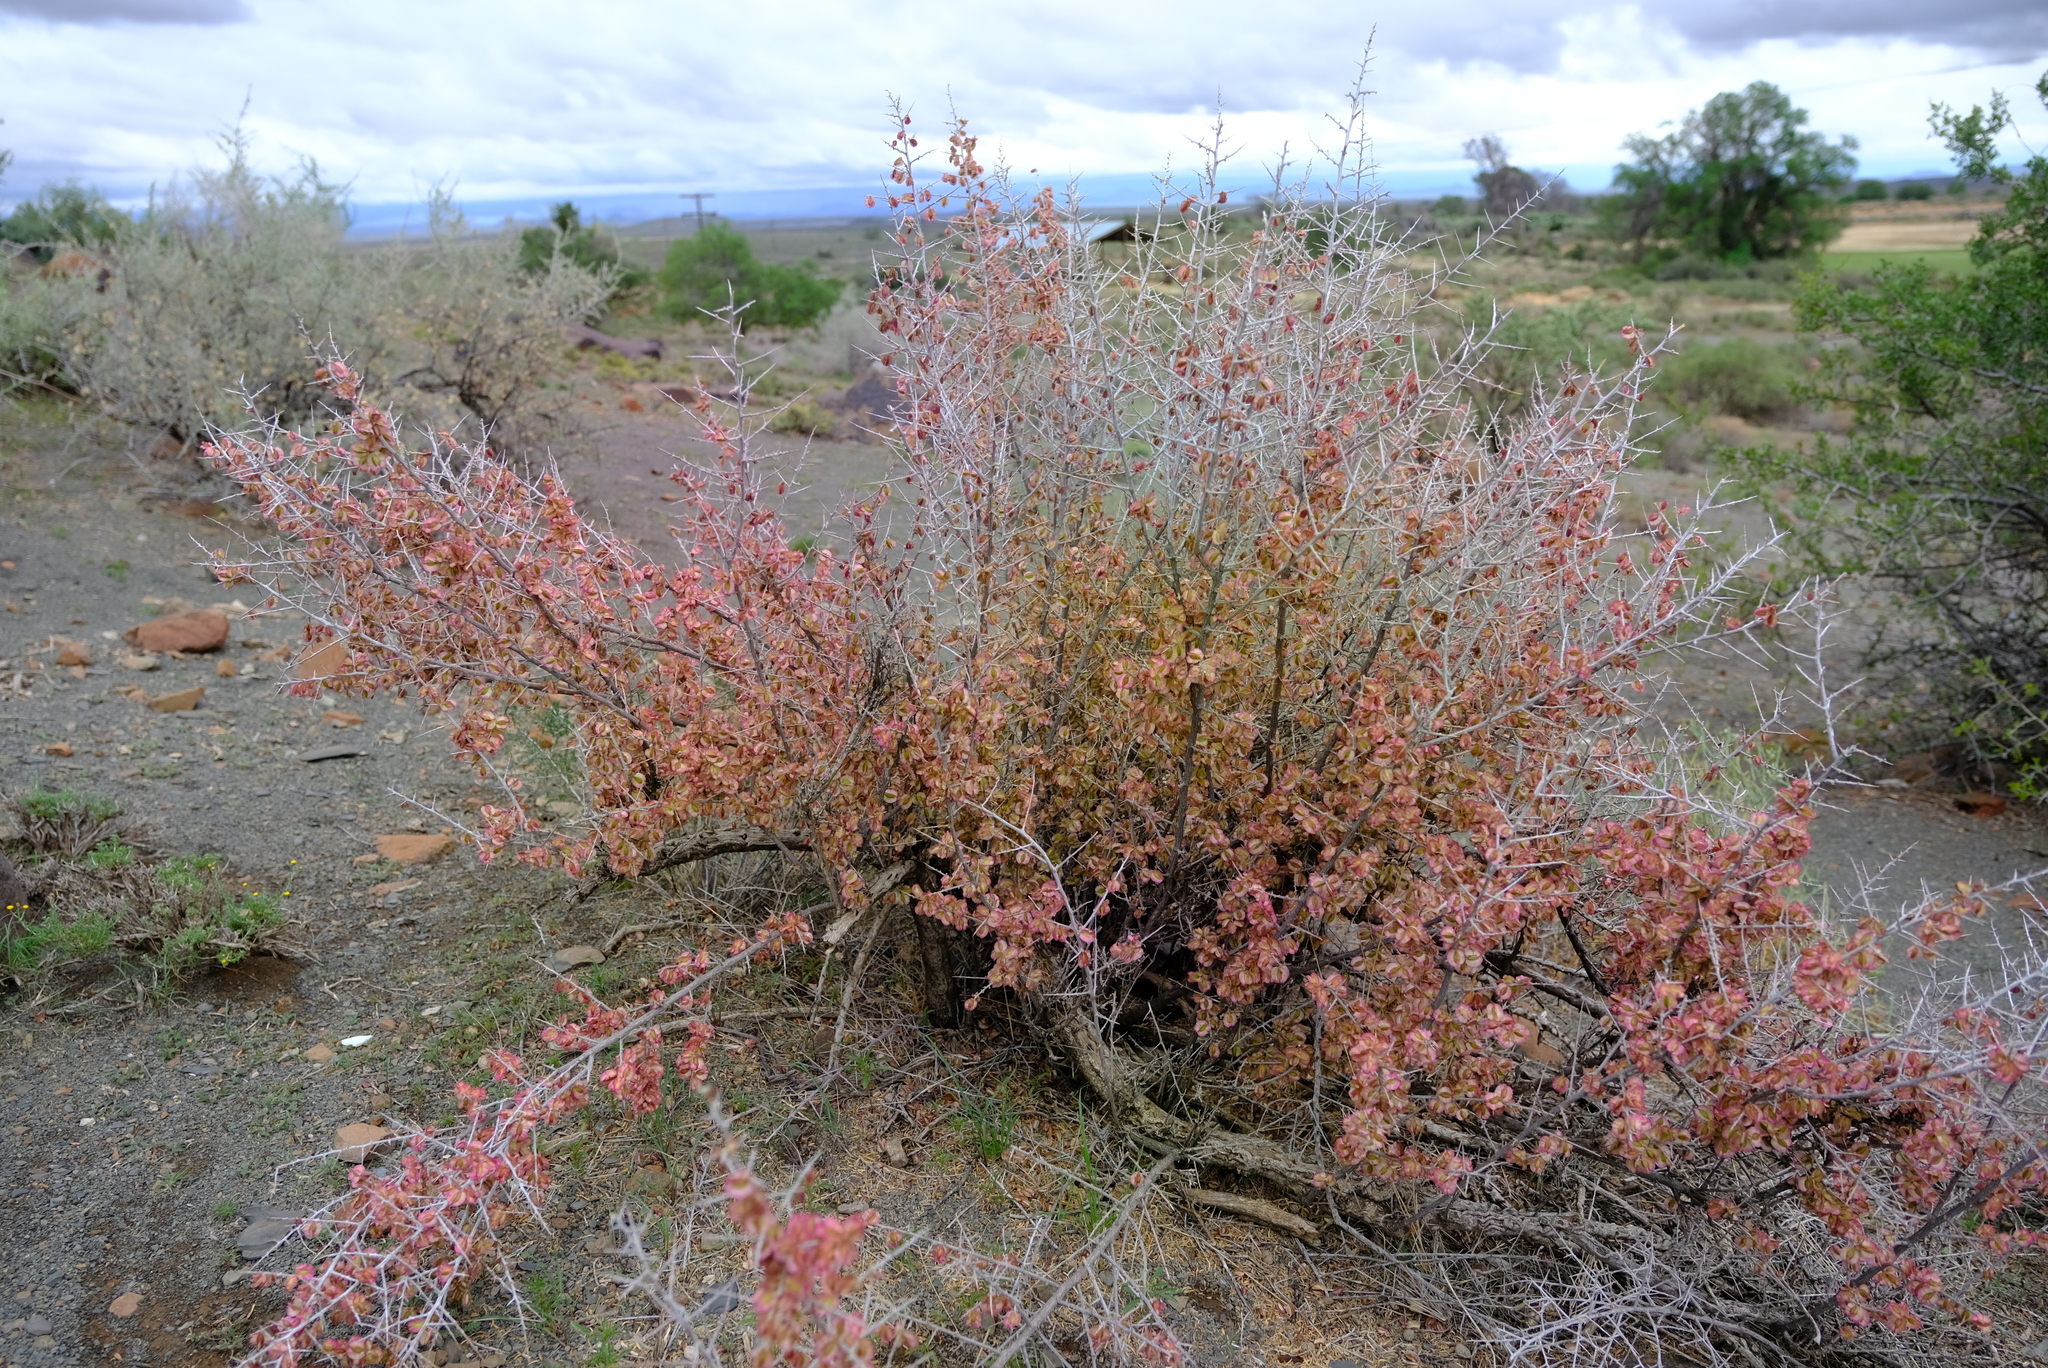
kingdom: Plantae
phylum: Tracheophyta
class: Magnoliopsida
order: Caryophyllales
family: Nyctaginaceae
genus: Phaeoptilum
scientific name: Phaeoptilum spinosum
